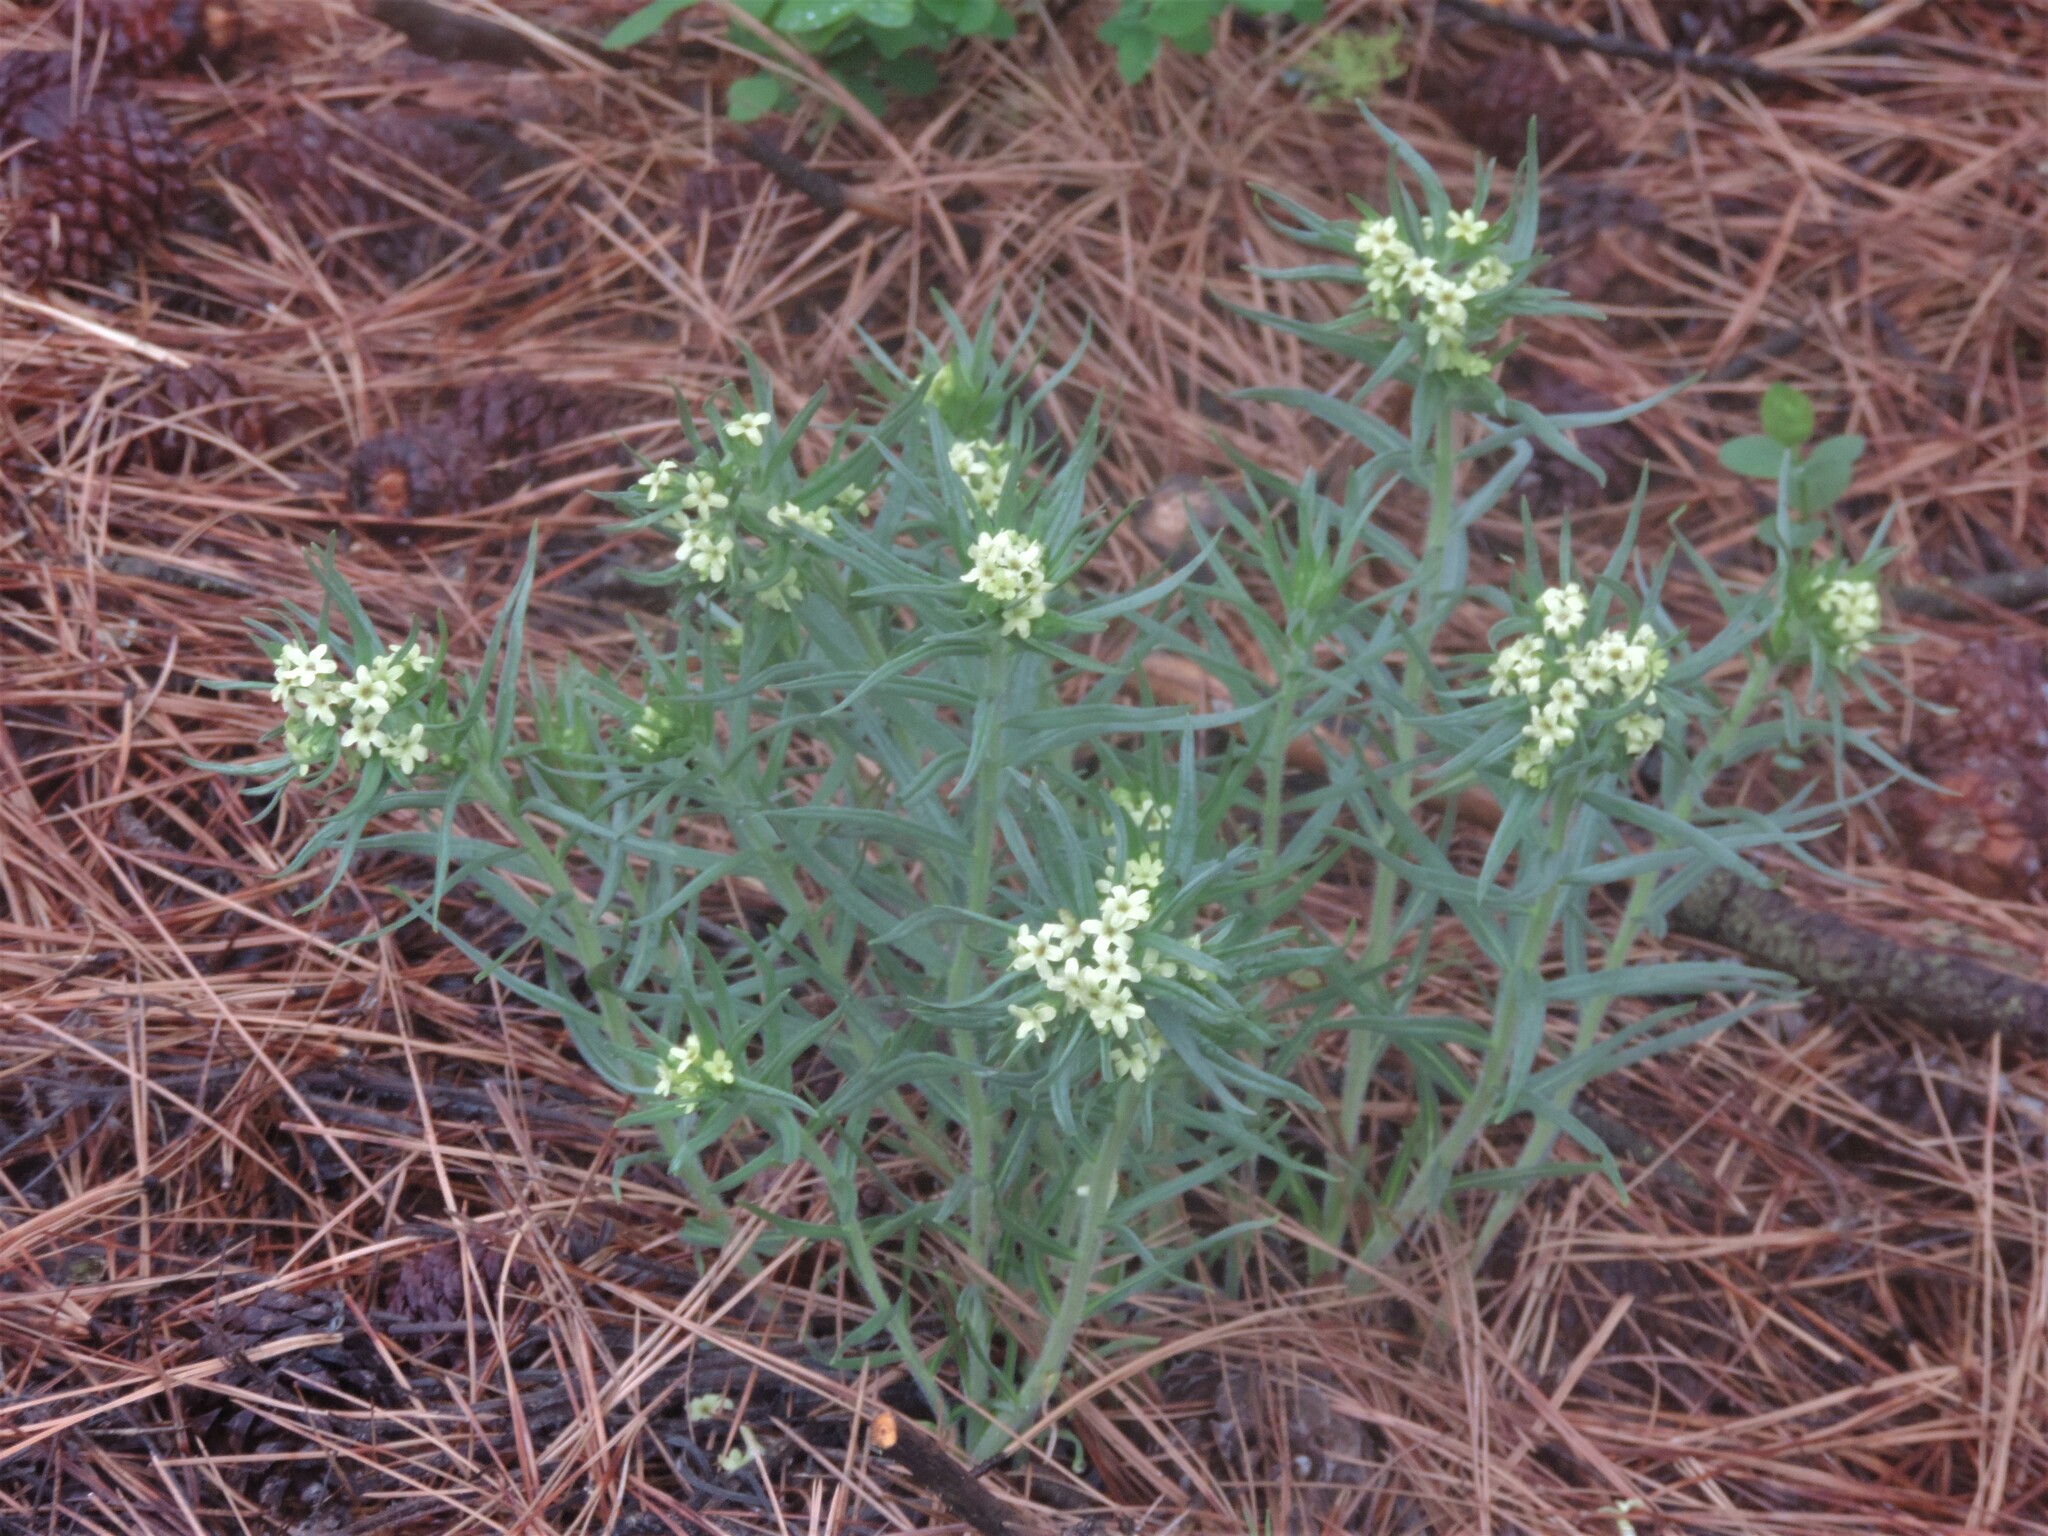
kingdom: Plantae
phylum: Tracheophyta
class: Magnoliopsida
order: Boraginales
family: Boraginaceae
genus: Lithospermum
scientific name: Lithospermum ruderale
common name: Western gromwell
